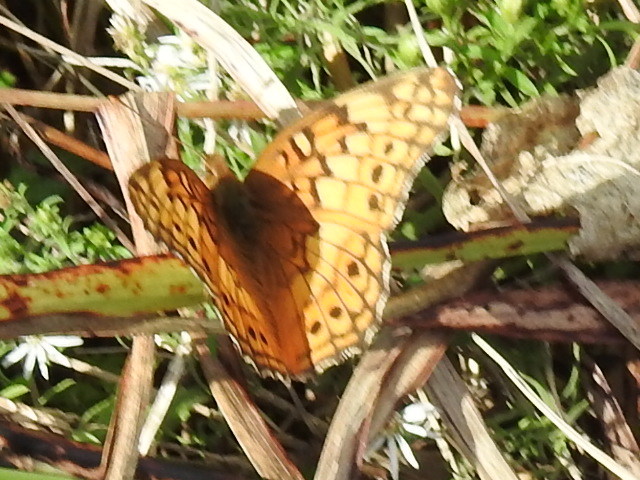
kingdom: Animalia
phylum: Arthropoda
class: Insecta
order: Lepidoptera
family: Nymphalidae
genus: Euptoieta
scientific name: Euptoieta claudia
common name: Variegated fritillary
